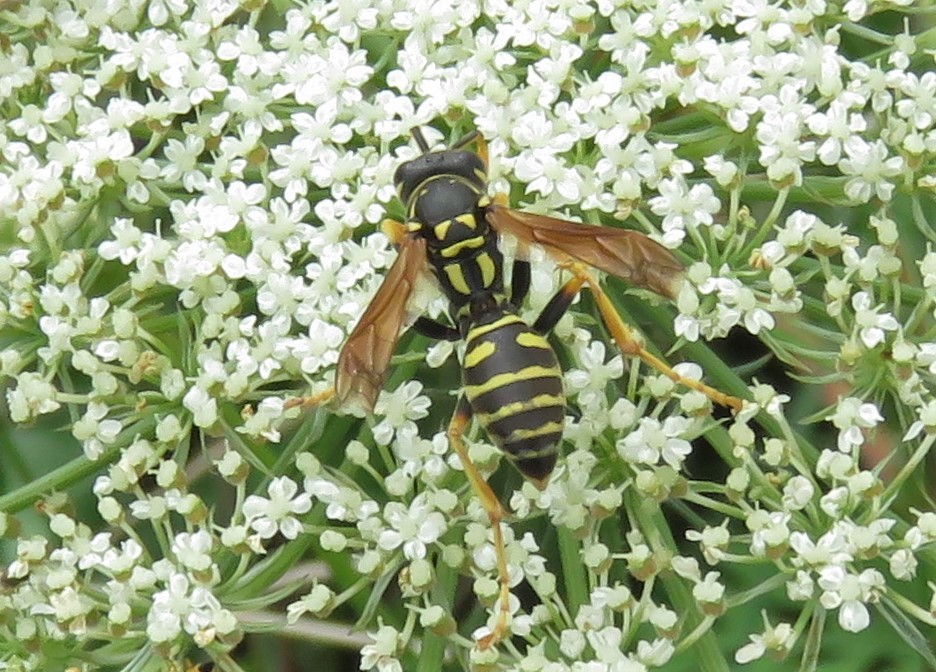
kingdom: Animalia
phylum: Arthropoda
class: Insecta
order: Hymenoptera
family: Eumenidae
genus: Polistes
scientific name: Polistes dominula
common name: Paper wasp
